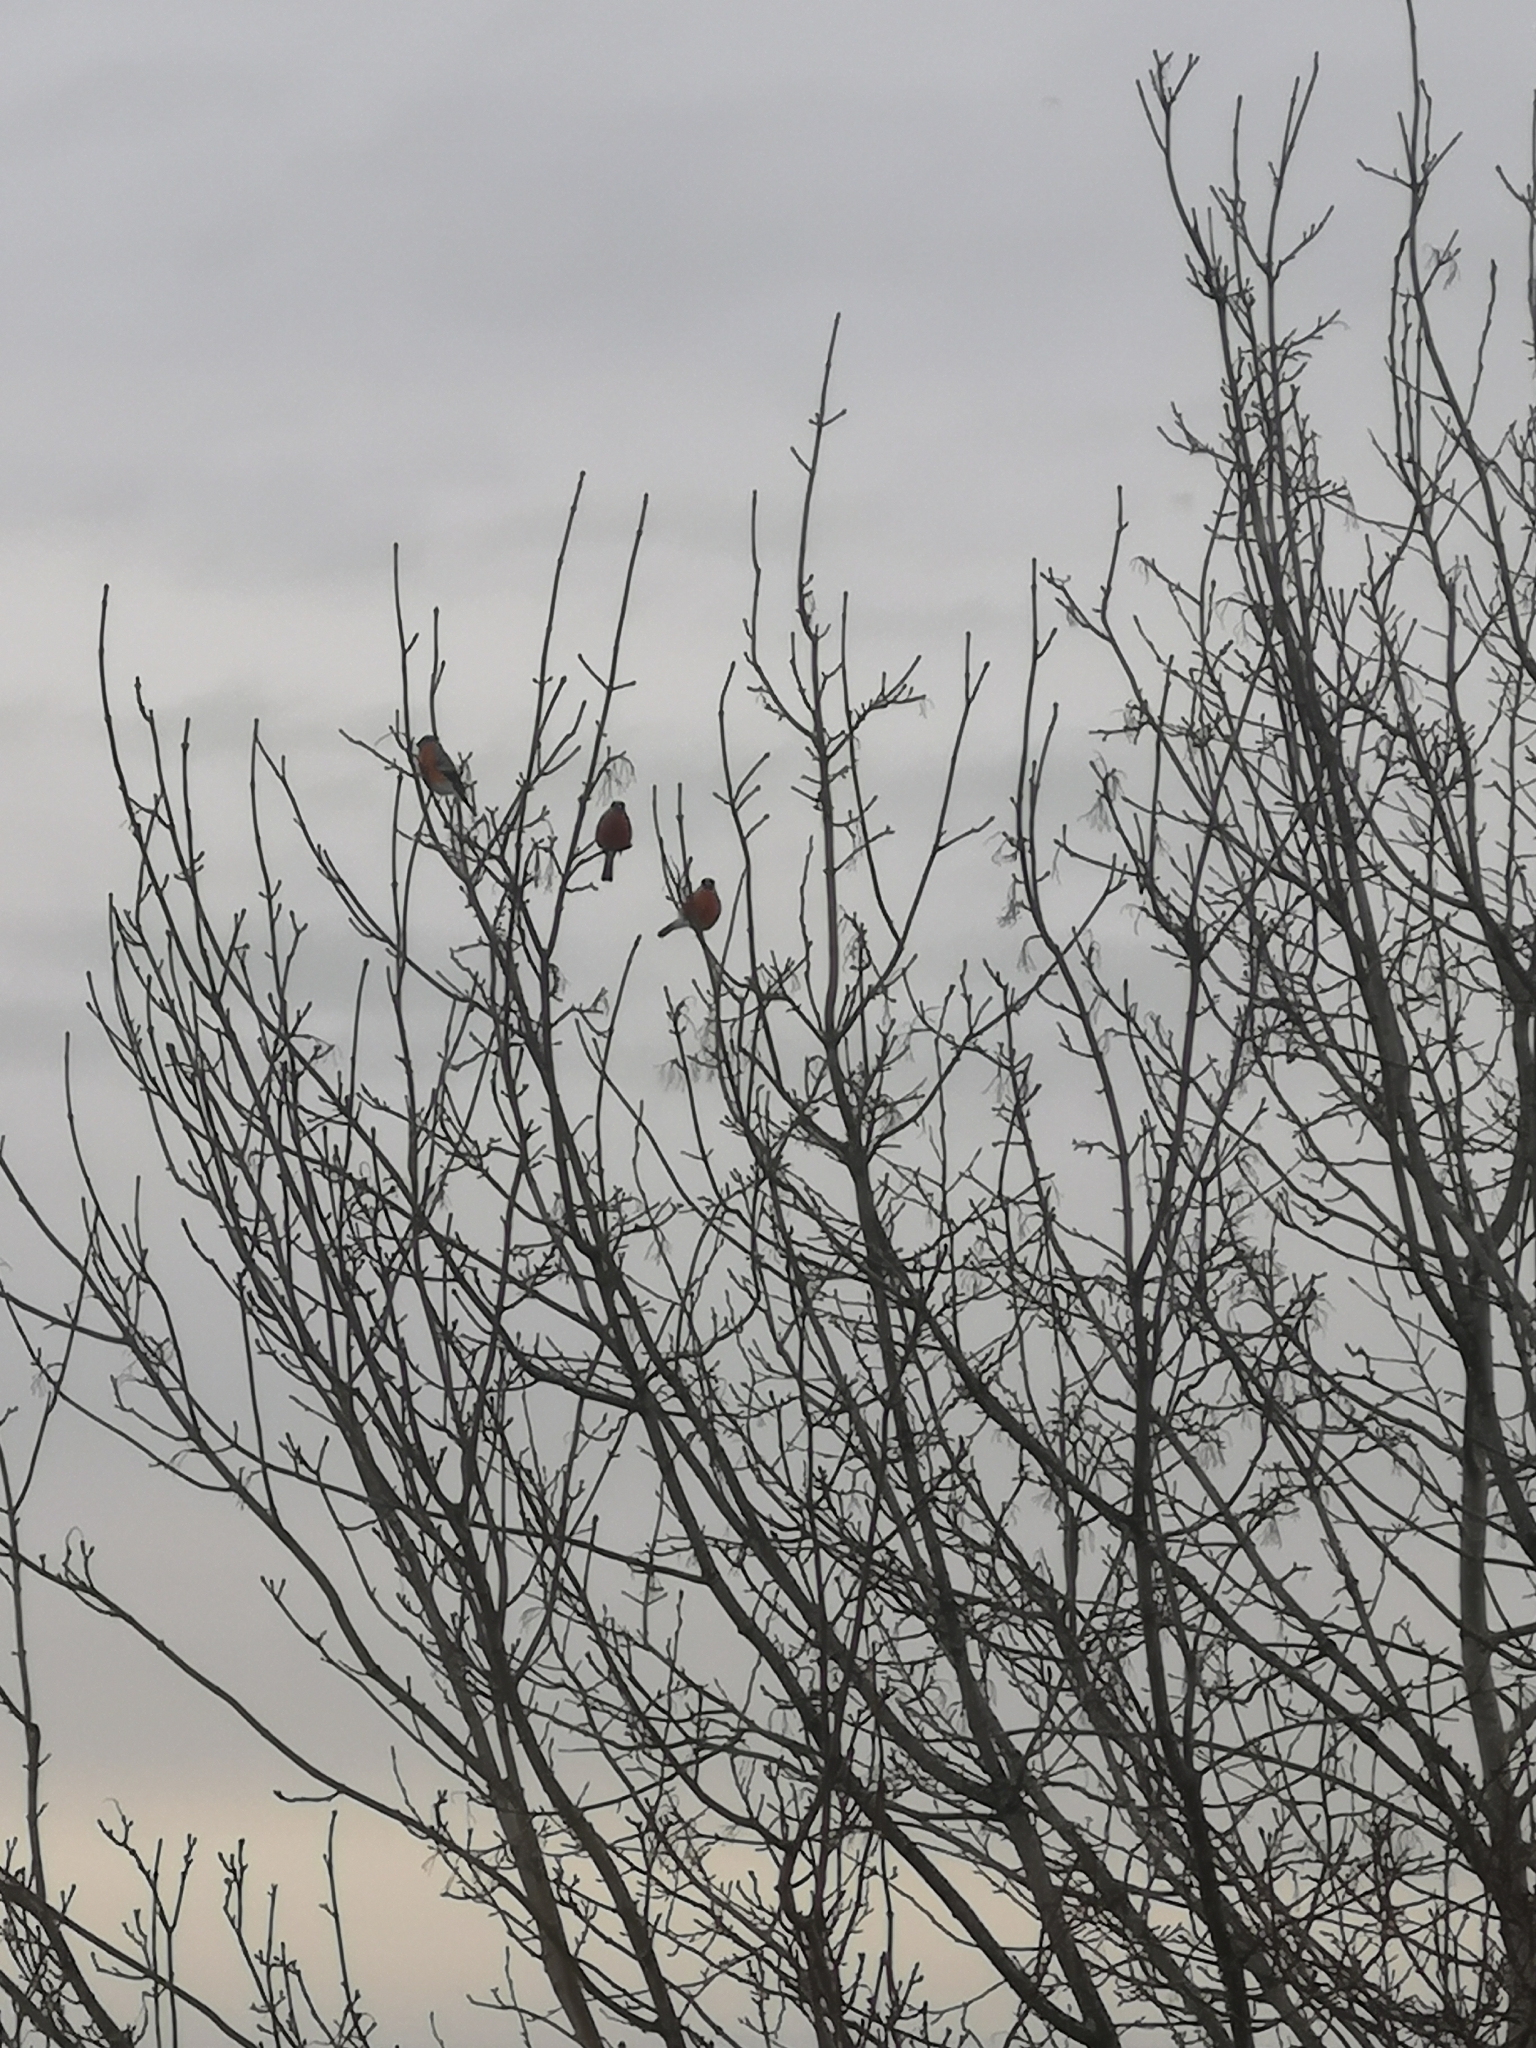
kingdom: Animalia
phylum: Chordata
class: Aves
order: Passeriformes
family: Fringillidae
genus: Pyrrhula
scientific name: Pyrrhula pyrrhula
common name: Eurasian bullfinch
